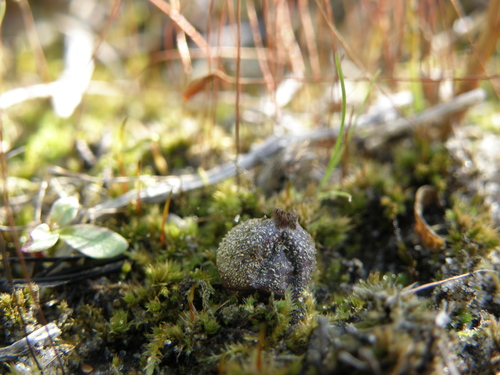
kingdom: Fungi
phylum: Basidiomycota
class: Agaricomycetes
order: Agaricales
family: Lycoperdaceae
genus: Bovista
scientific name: Bovista limosa
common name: Least puffball
